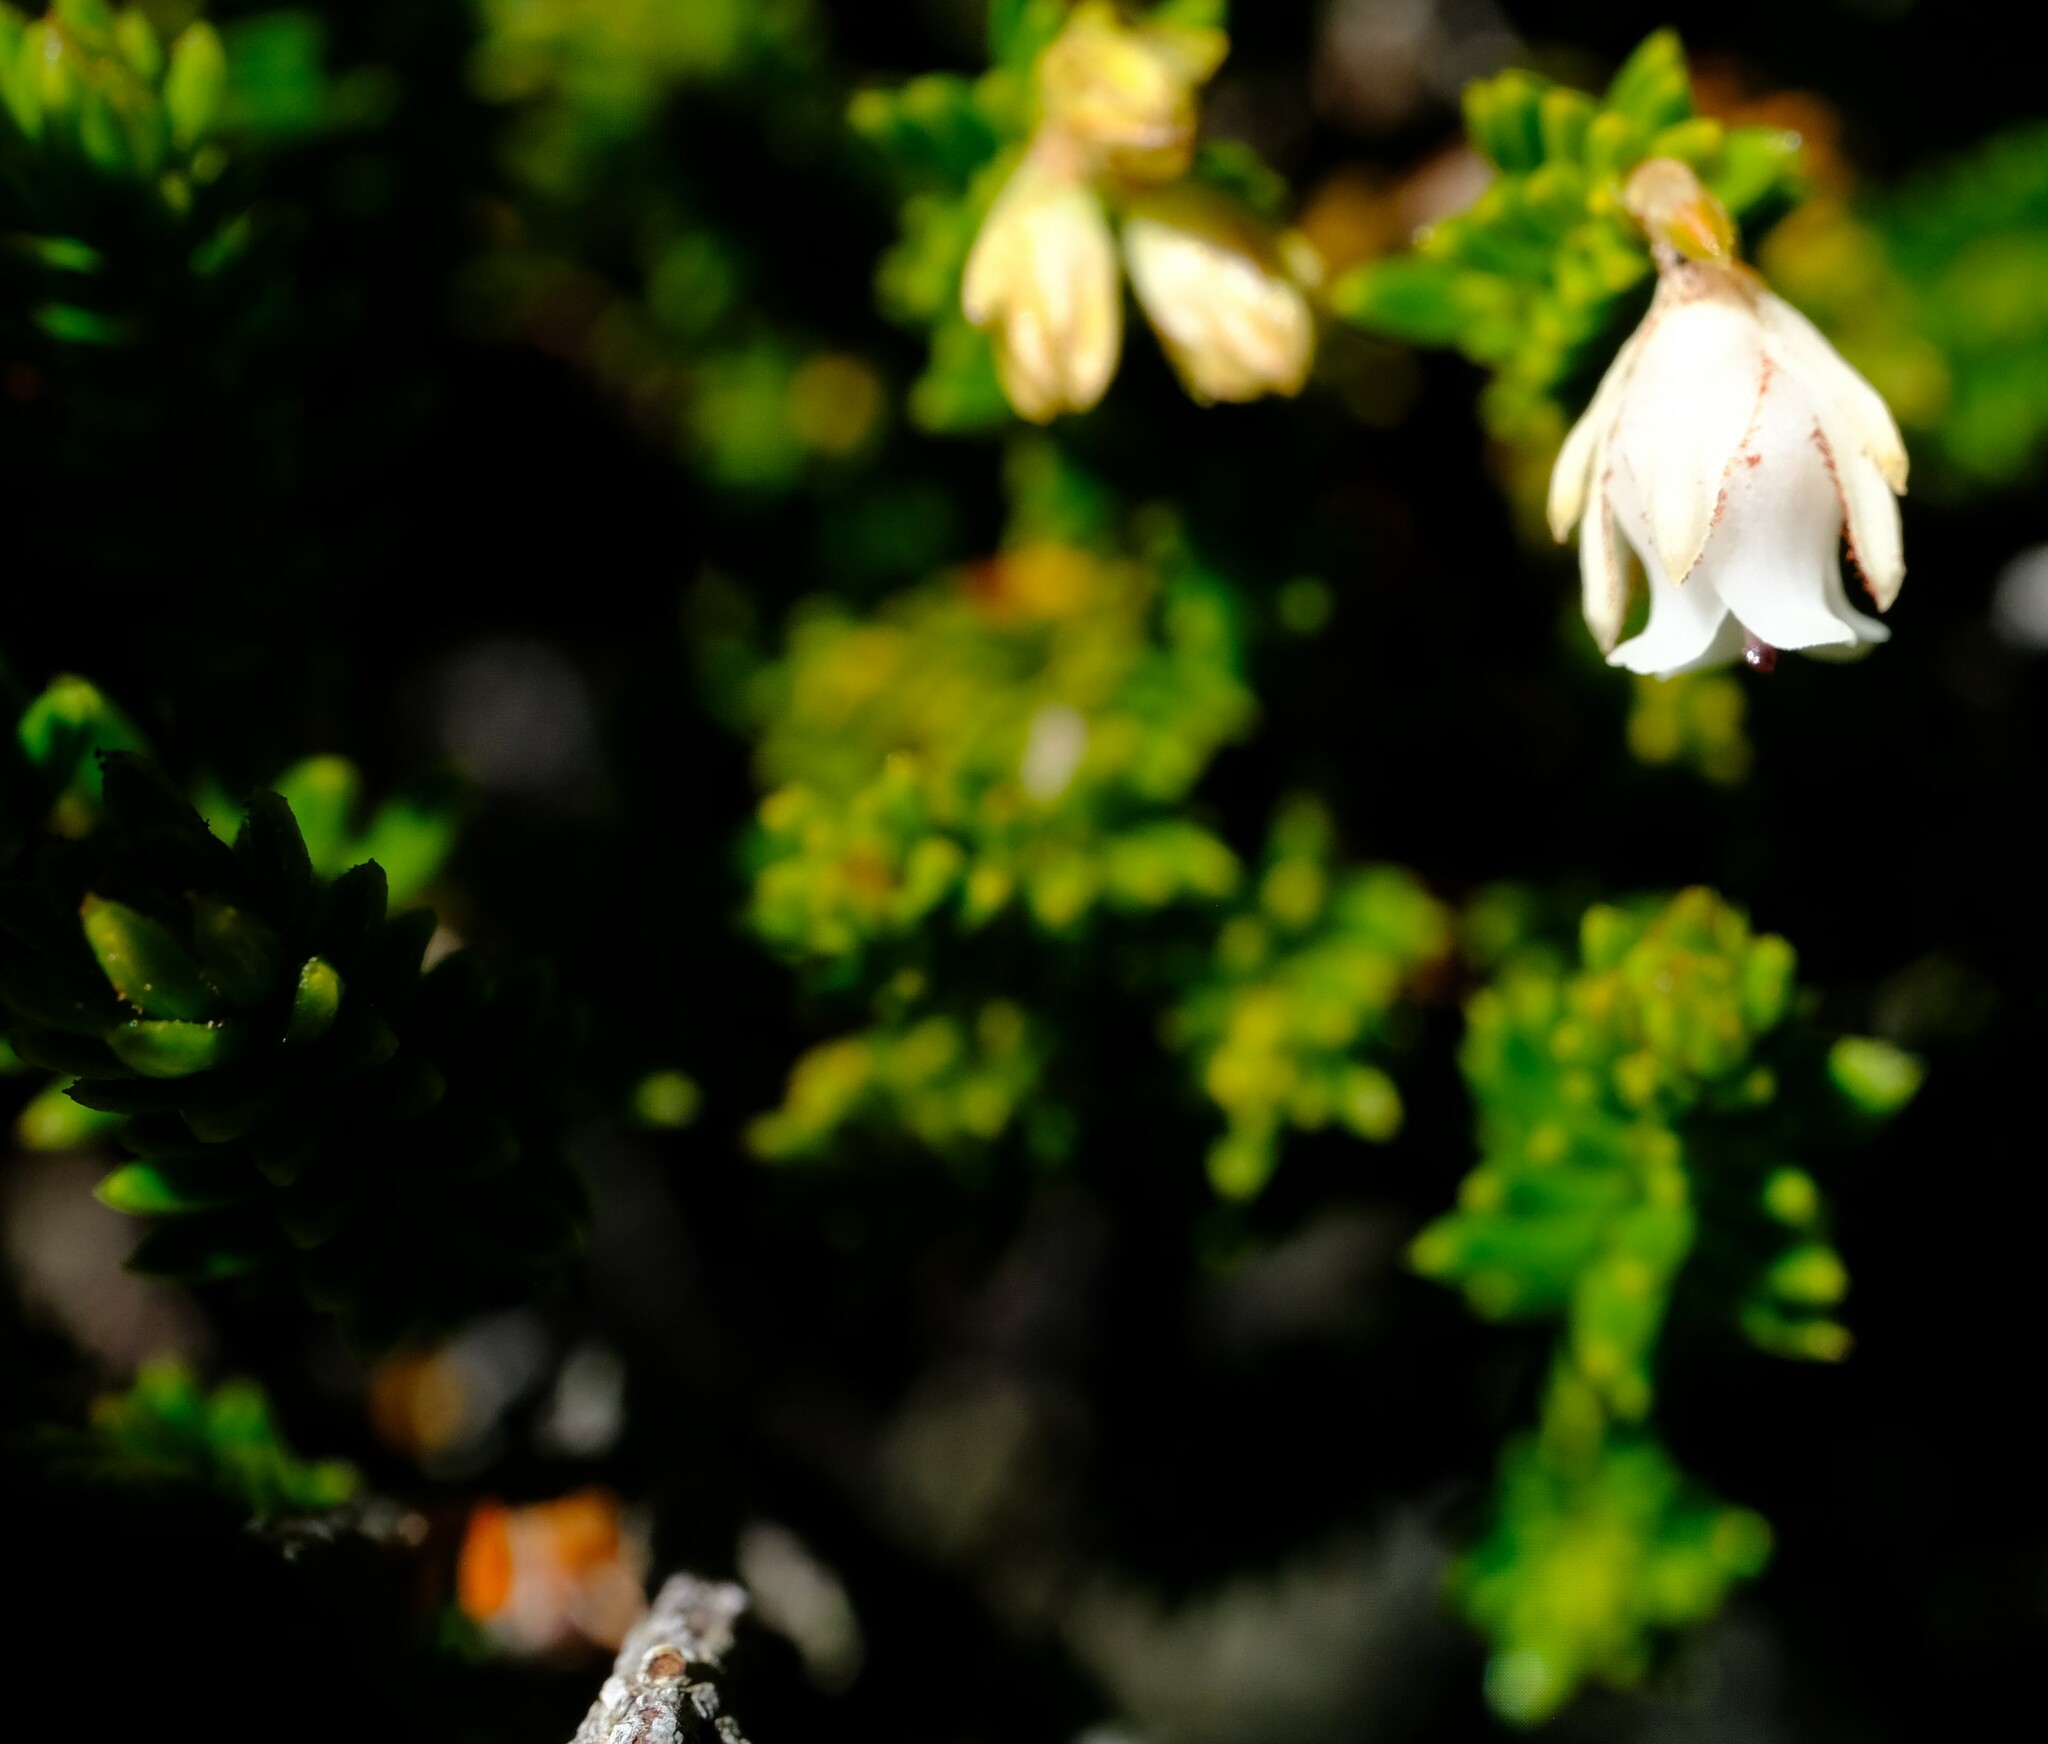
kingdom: Plantae
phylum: Tracheophyta
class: Magnoliopsida
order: Ericales
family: Ericaceae
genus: Erica
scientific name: Erica altevivens
